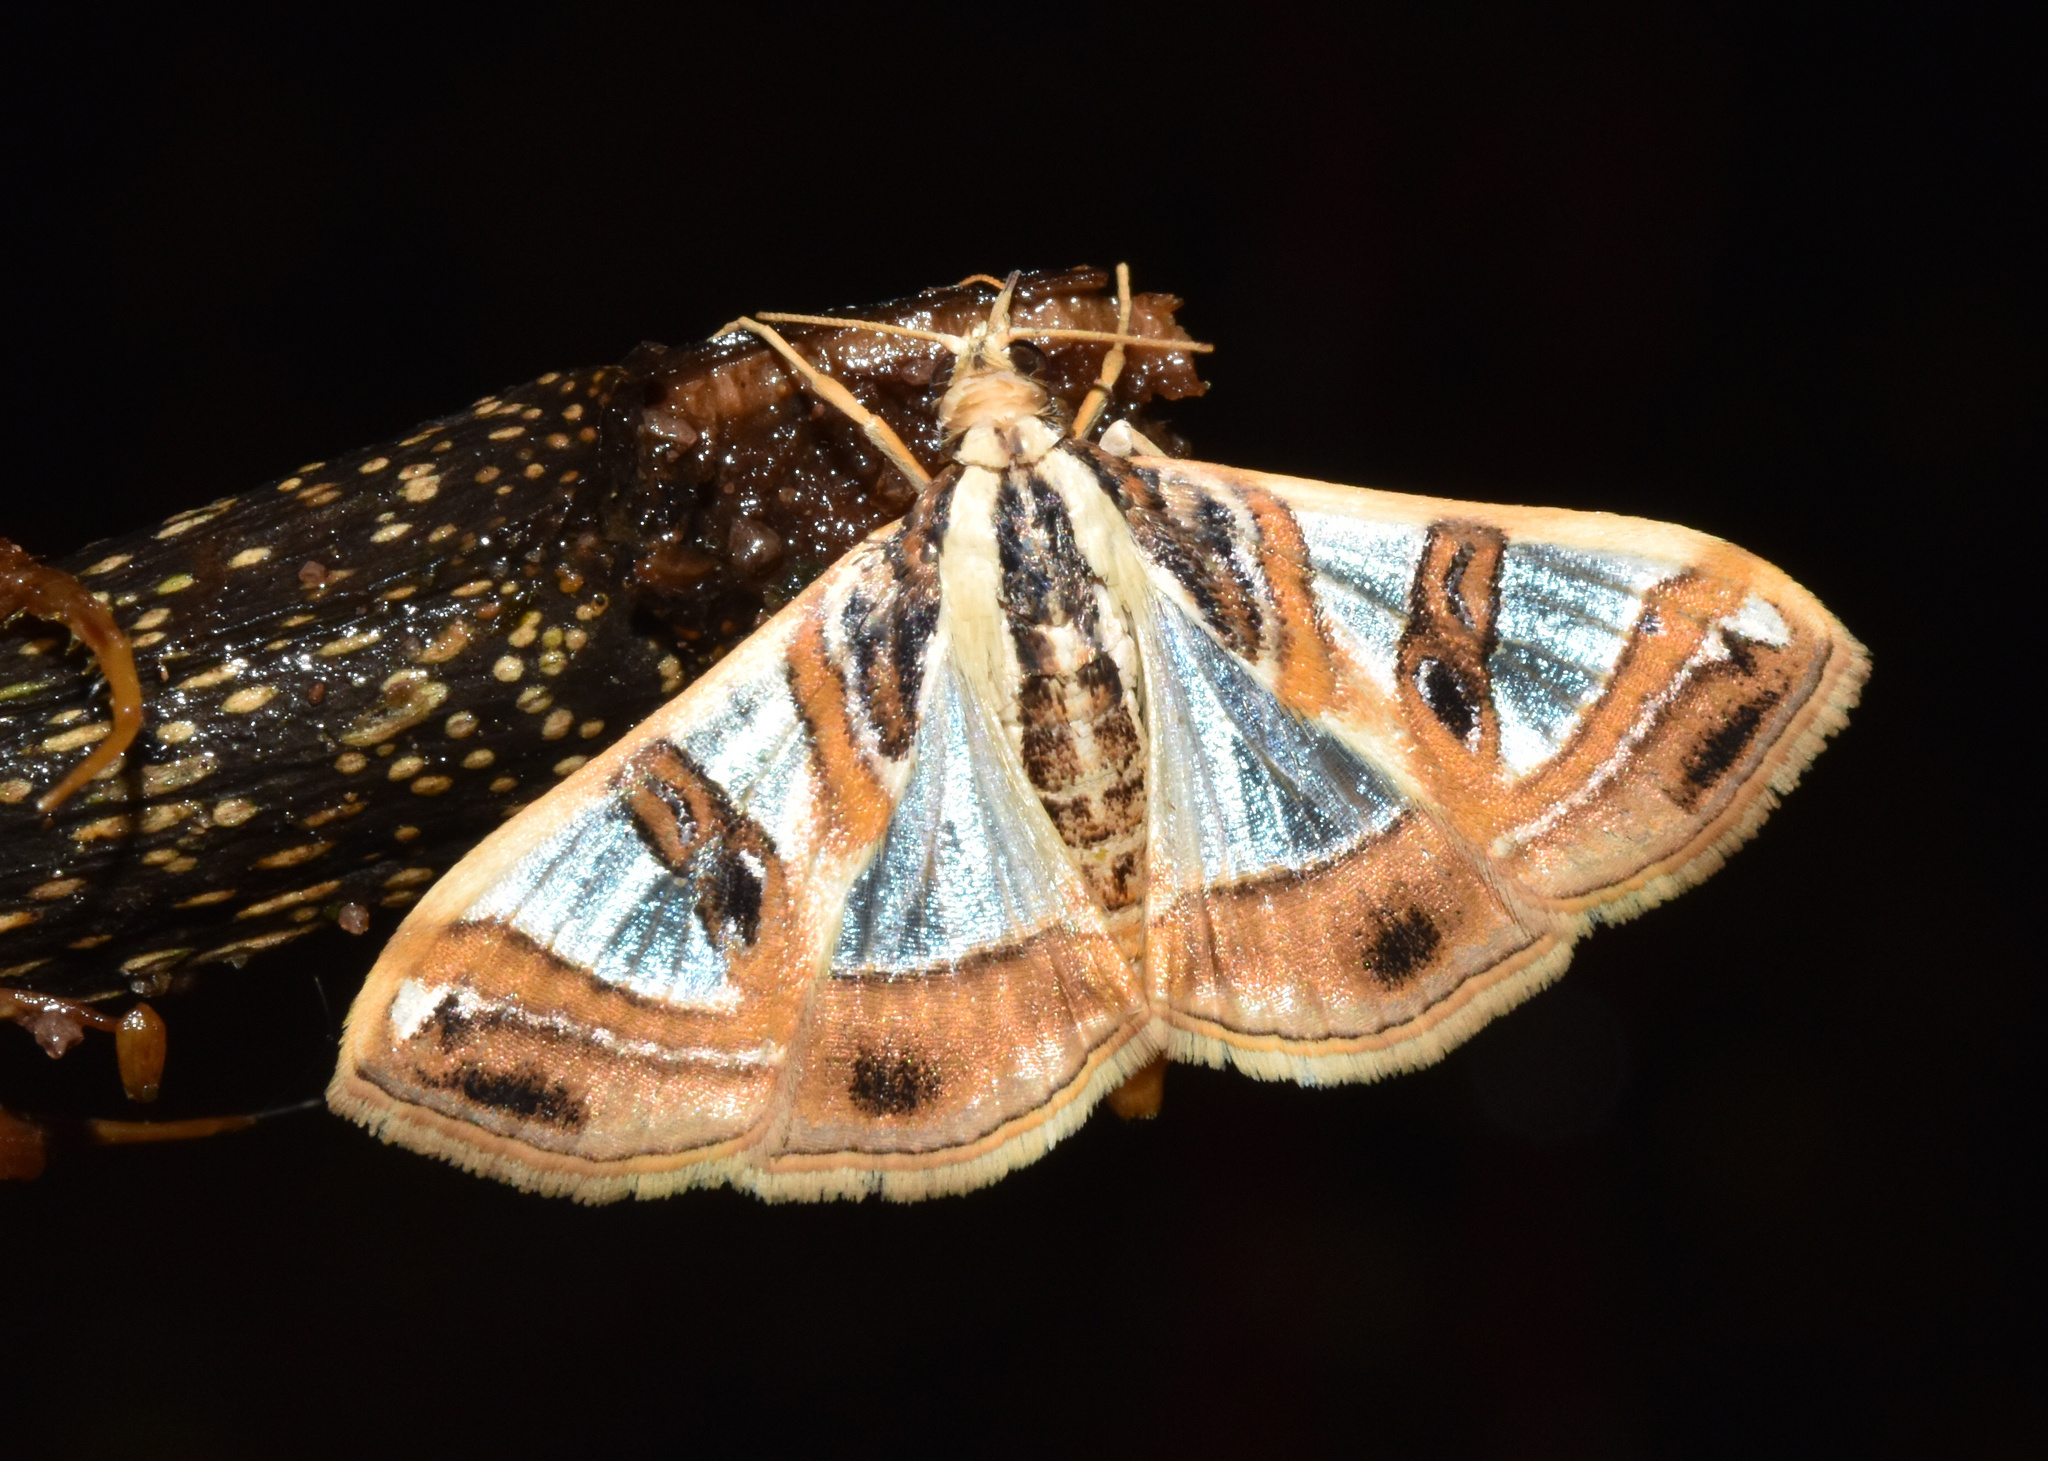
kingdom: Animalia
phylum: Arthropoda
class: Insecta
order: Lepidoptera
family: Crambidae
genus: Glyphodes
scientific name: Glyphodes sycina
